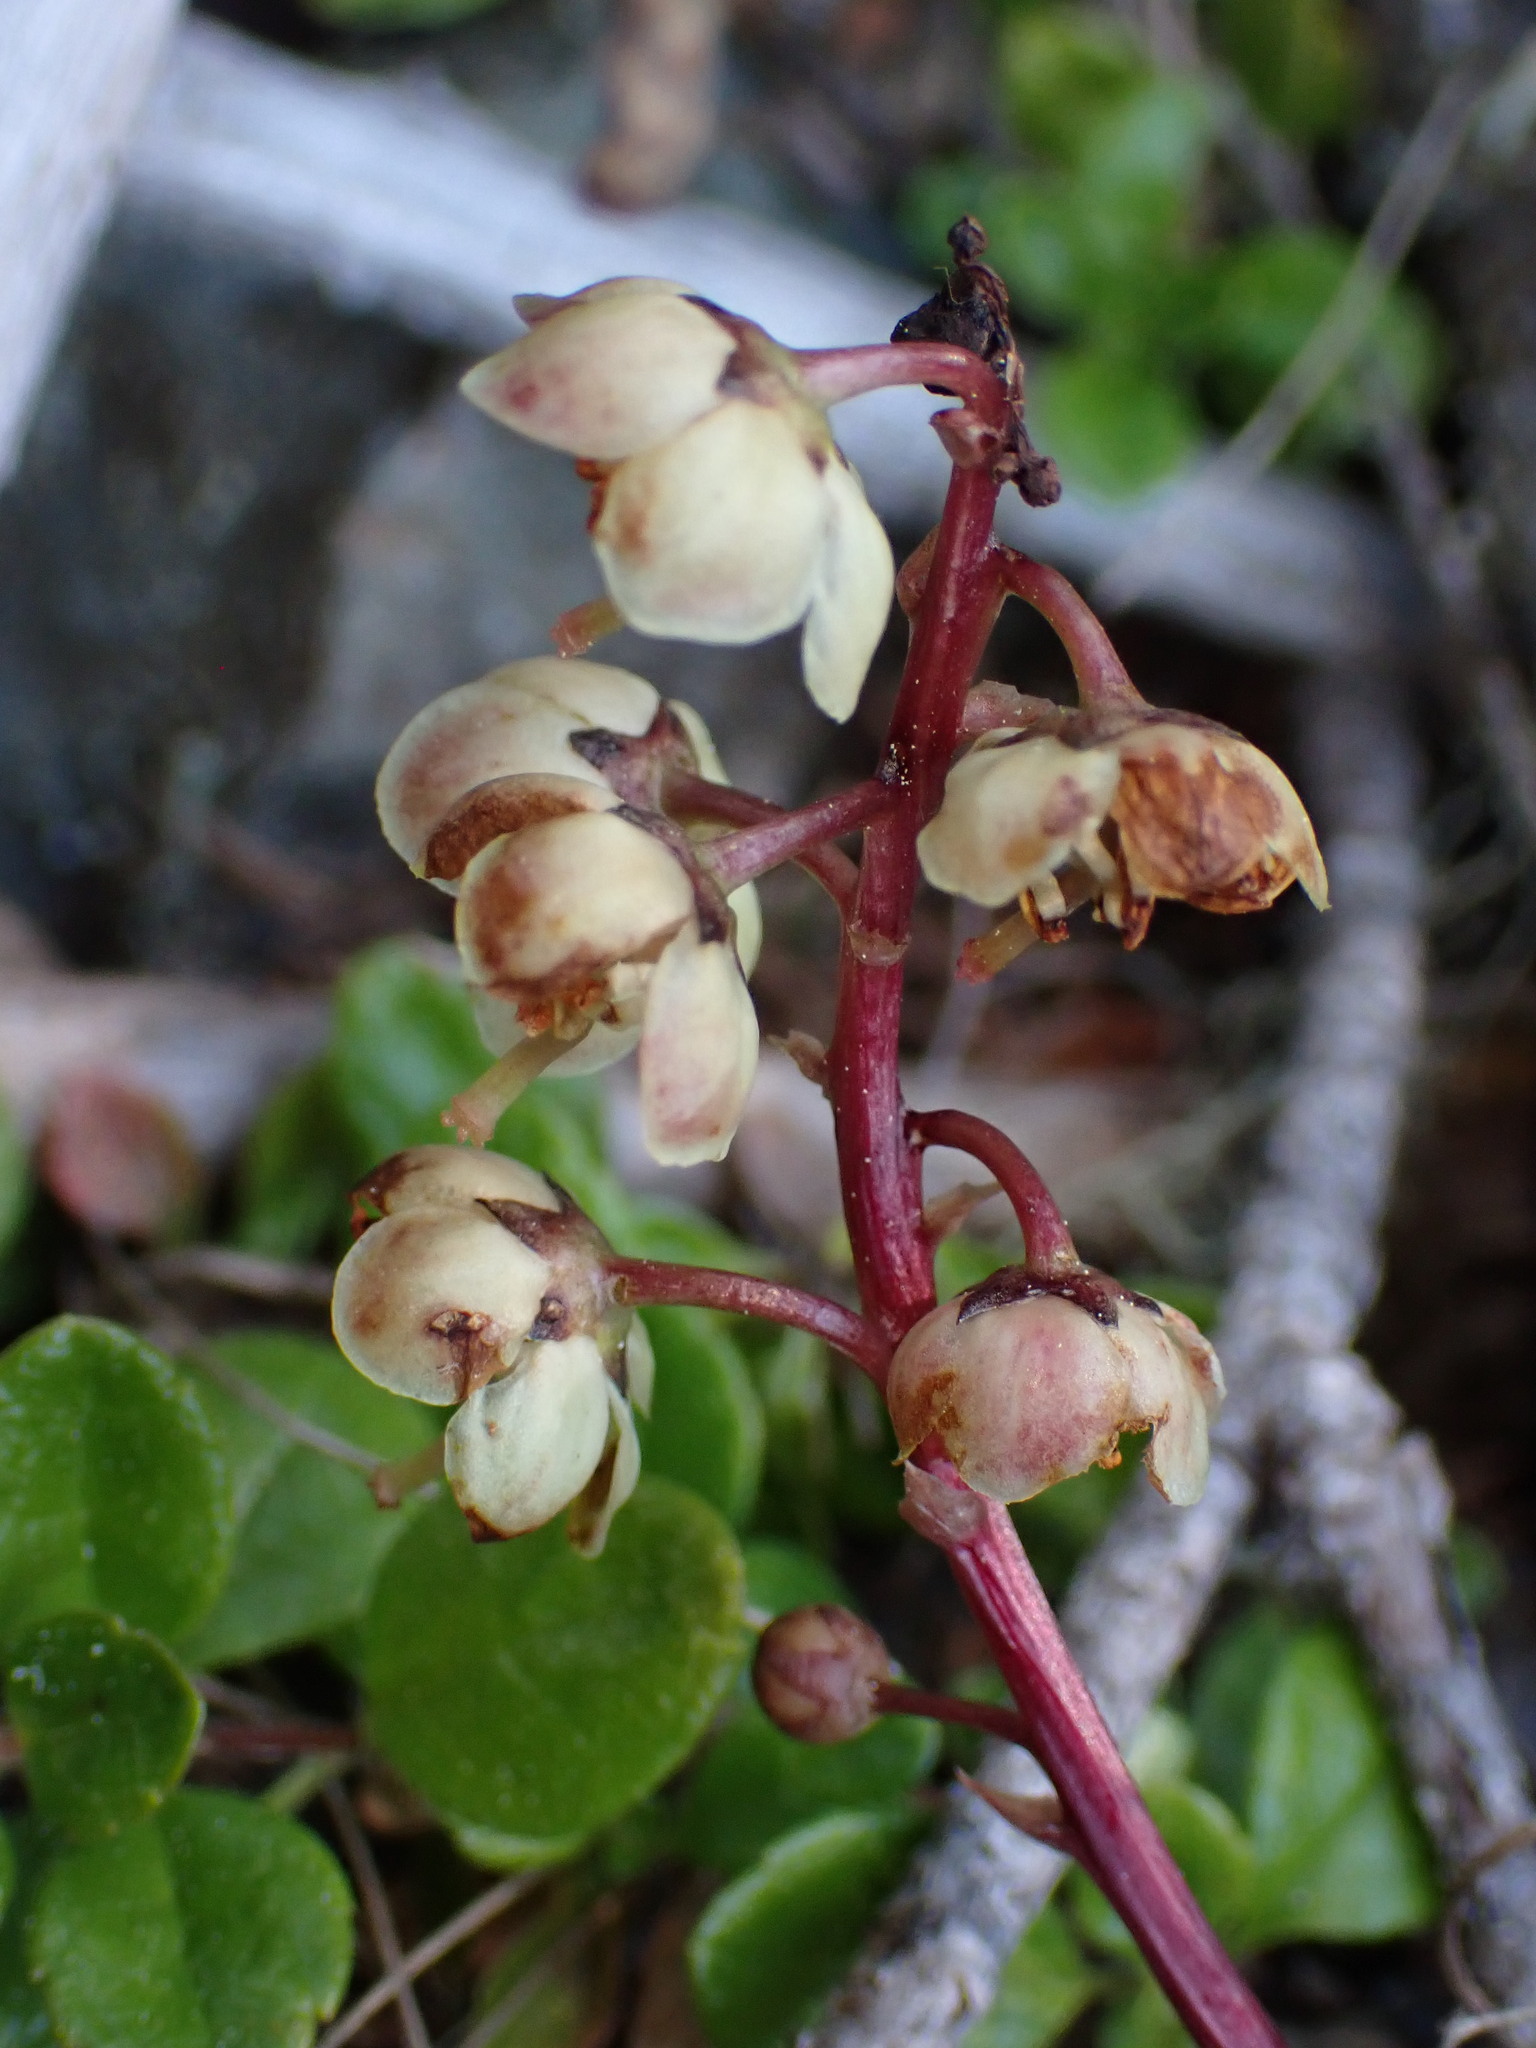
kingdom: Plantae
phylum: Tracheophyta
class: Magnoliopsida
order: Ericales
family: Ericaceae
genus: Pyrola
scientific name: Pyrola picta
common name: White-vein wintergreen
